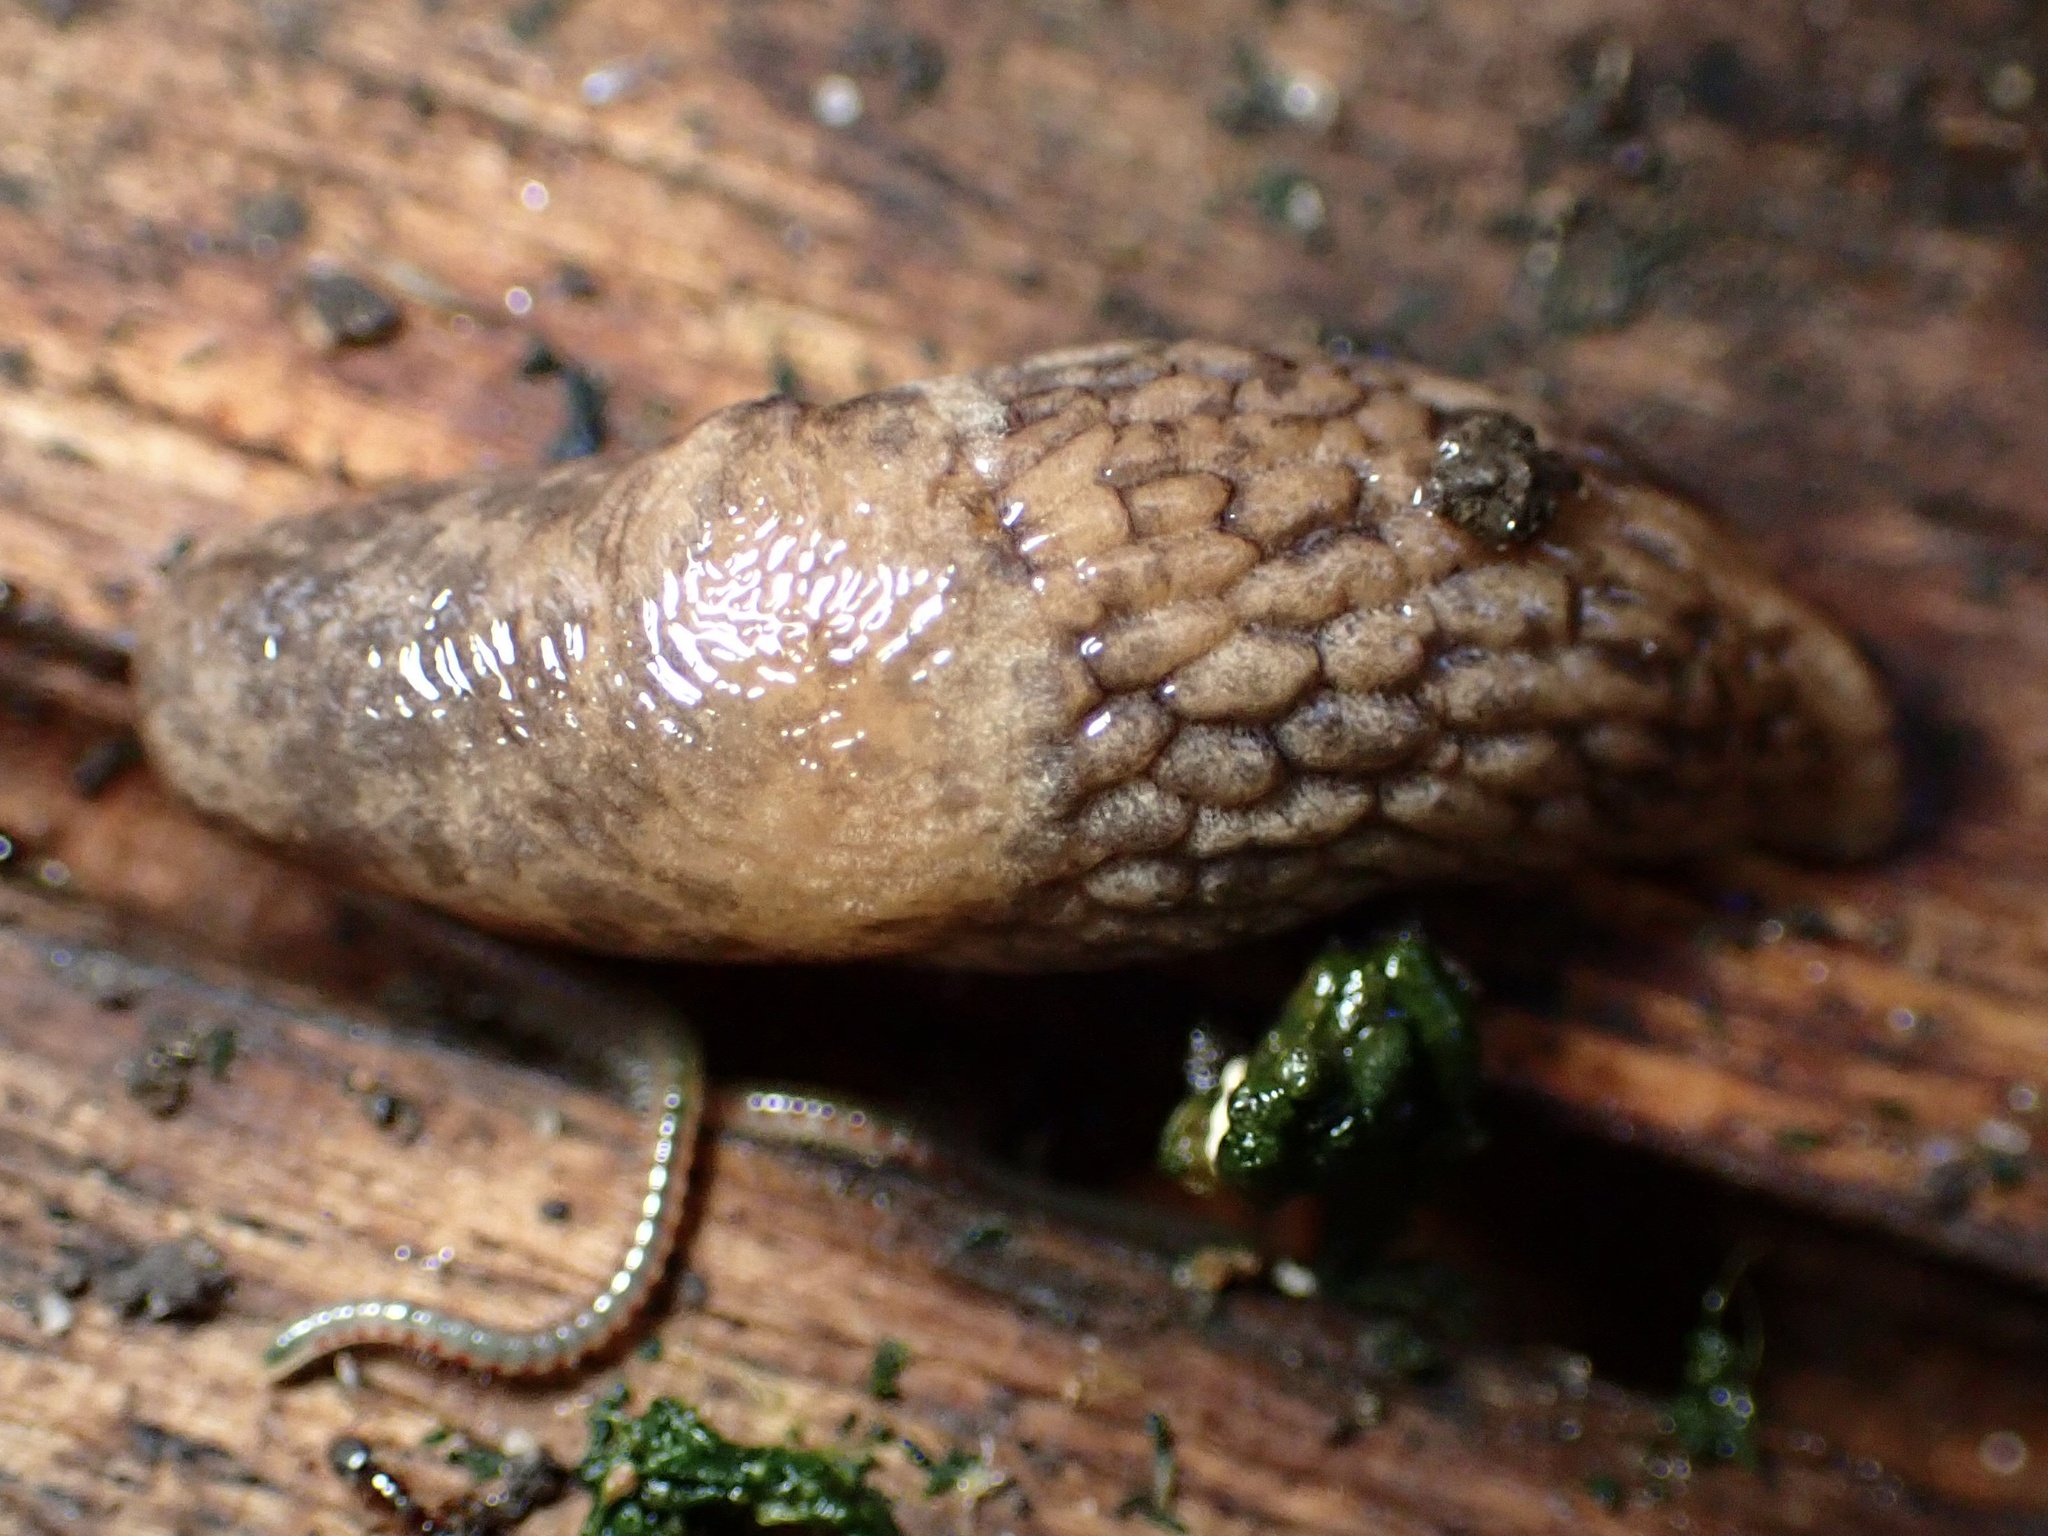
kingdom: Animalia
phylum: Mollusca
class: Gastropoda
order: Stylommatophora
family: Agriolimacidae
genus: Deroceras
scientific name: Deroceras reticulatum
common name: Gray field slug
